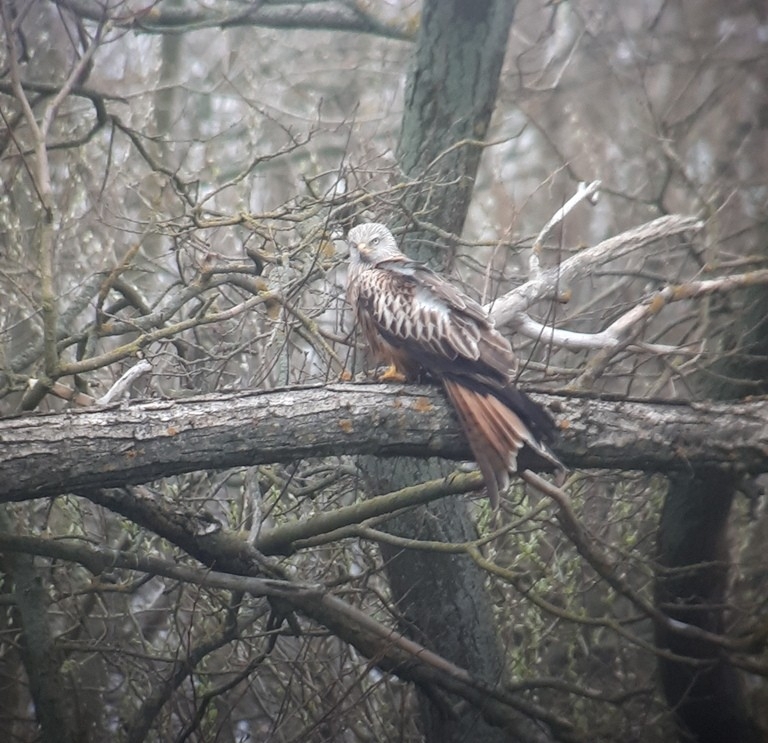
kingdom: Animalia
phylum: Chordata
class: Aves
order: Accipitriformes
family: Accipitridae
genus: Milvus
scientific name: Milvus milvus
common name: Red kite
